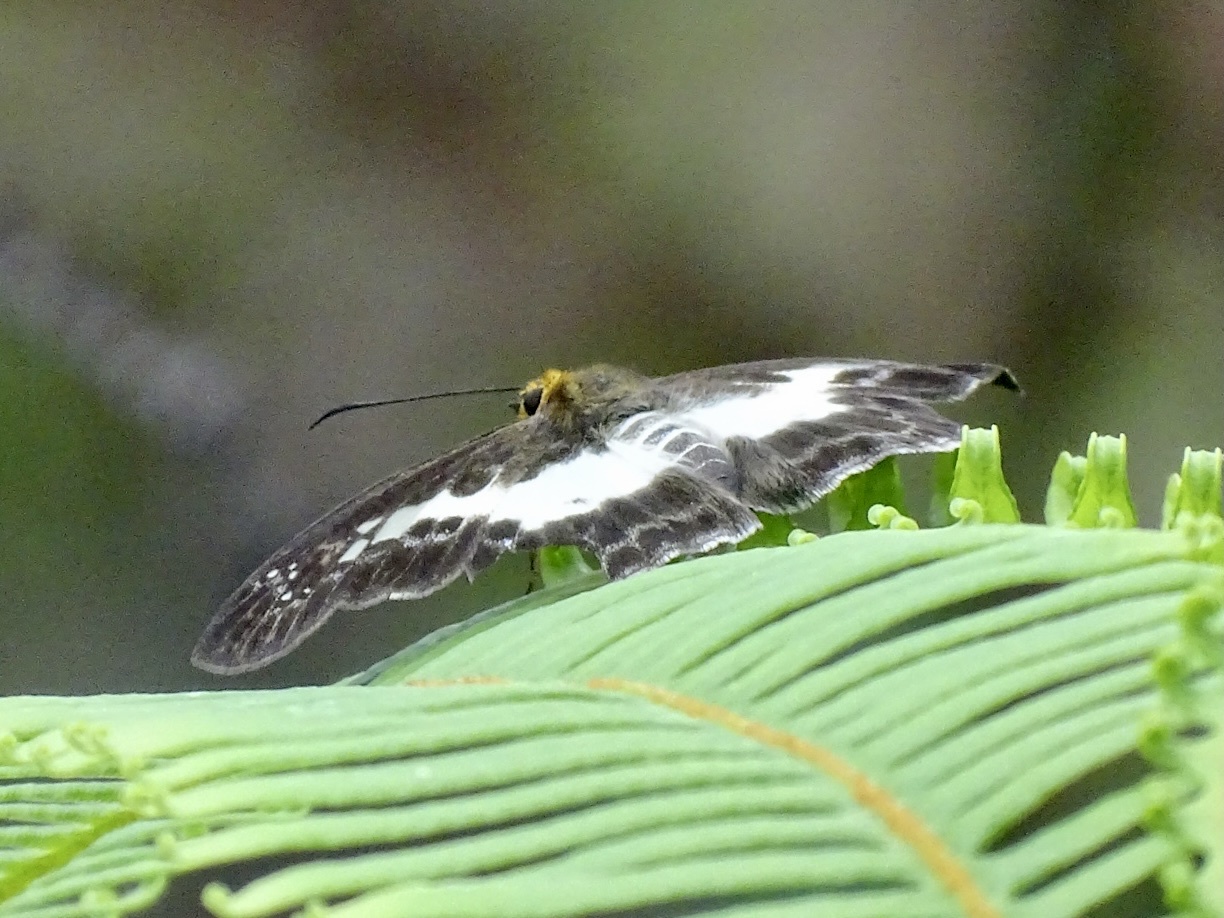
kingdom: Animalia
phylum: Arthropoda
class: Insecta
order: Lepidoptera
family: Hesperiidae
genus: Daimio
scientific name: Daimio Gerosis phisara
